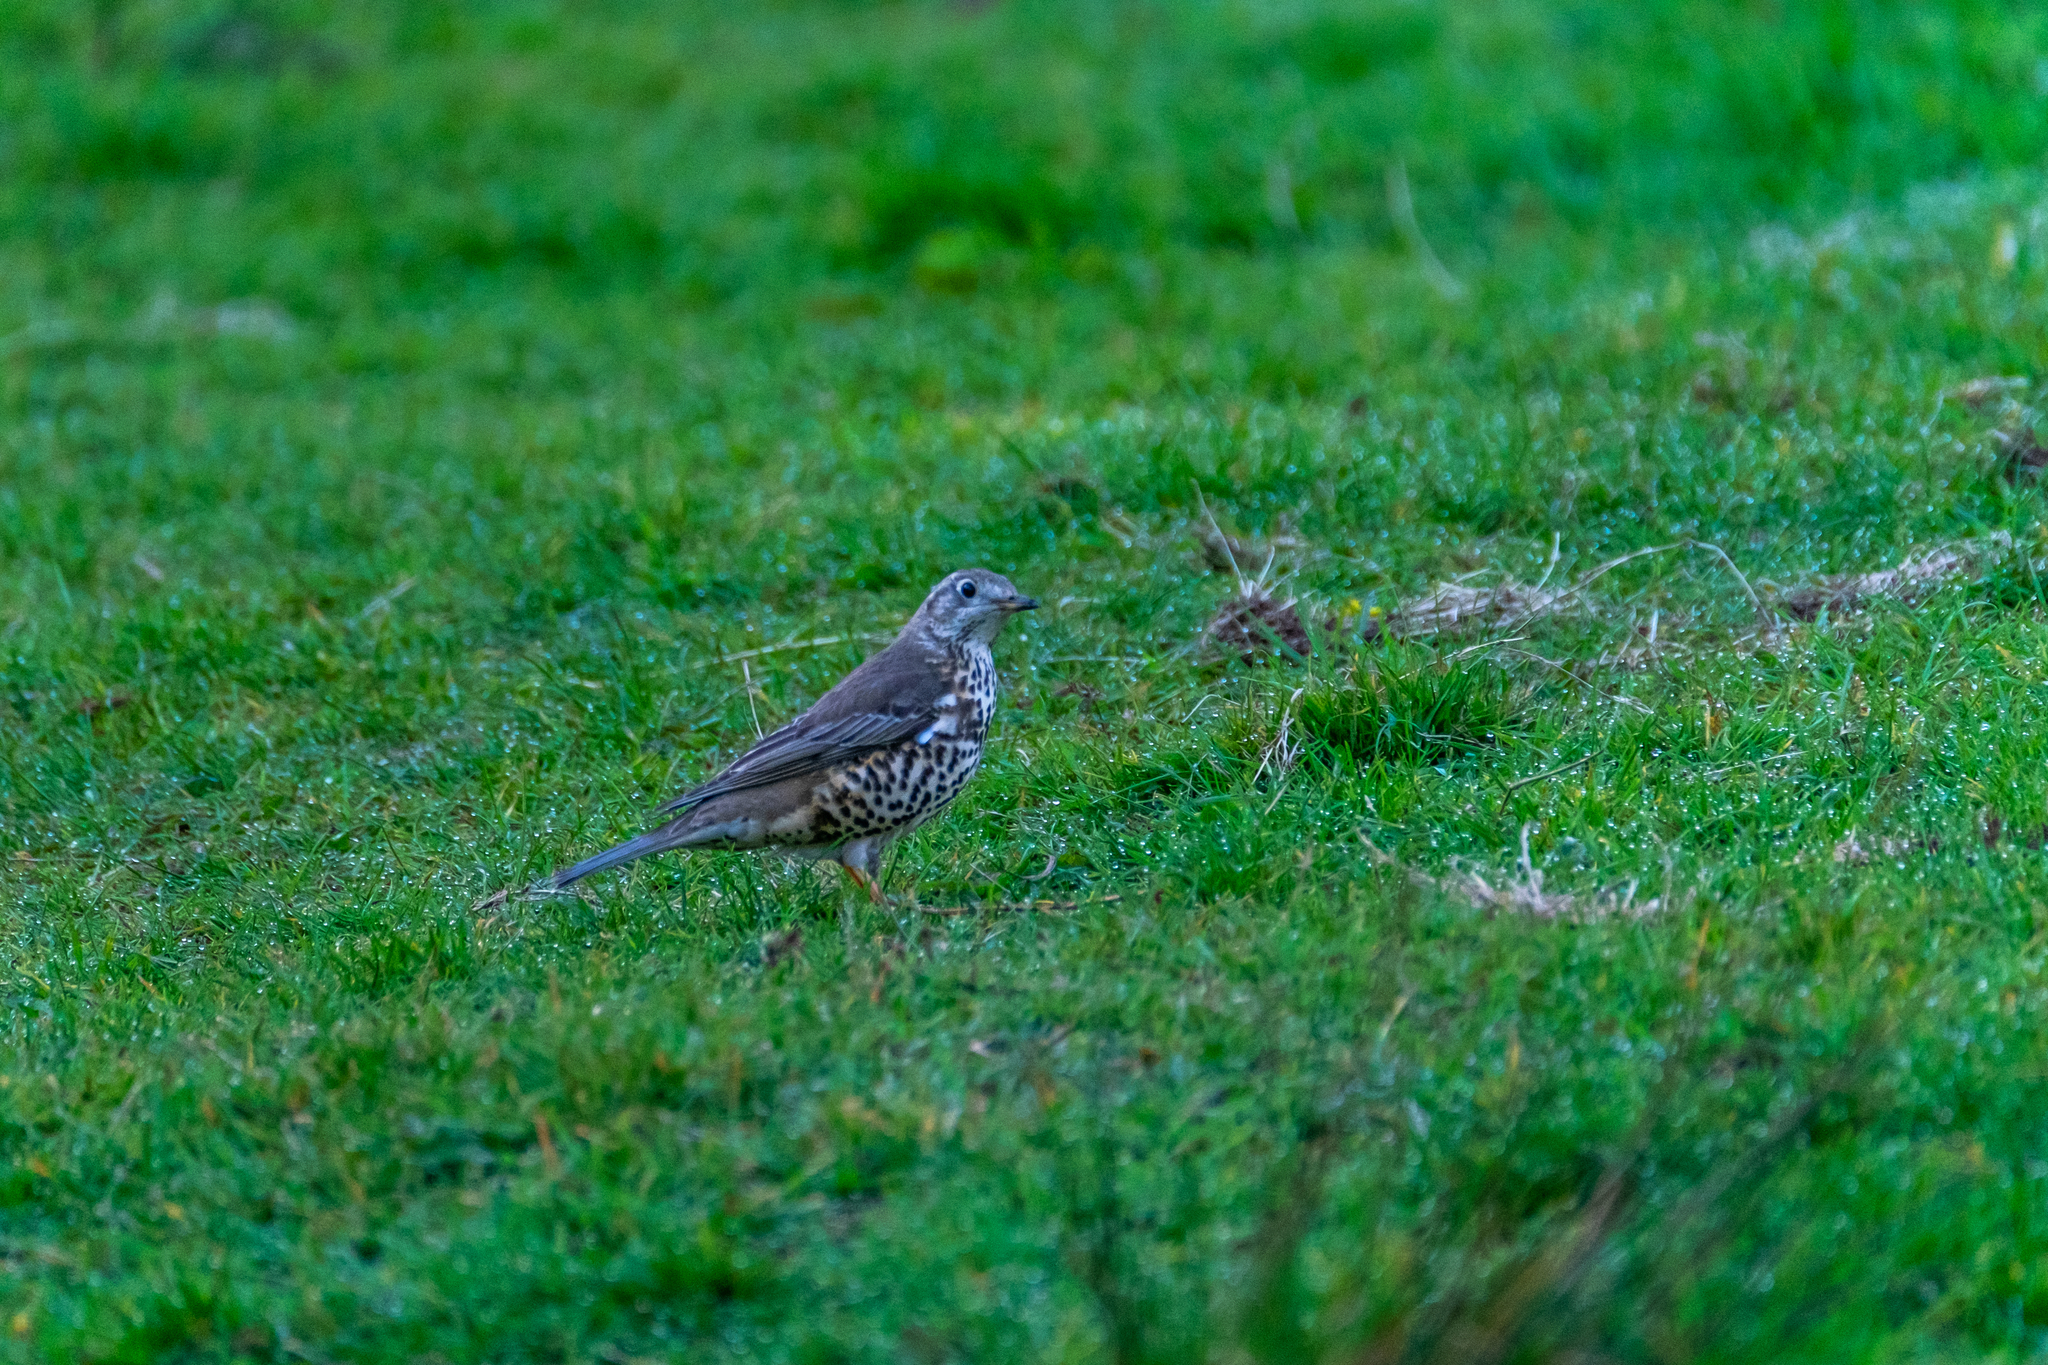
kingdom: Animalia
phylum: Chordata
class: Aves
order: Passeriformes
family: Turdidae
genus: Turdus
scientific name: Turdus viscivorus
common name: Mistle thrush
